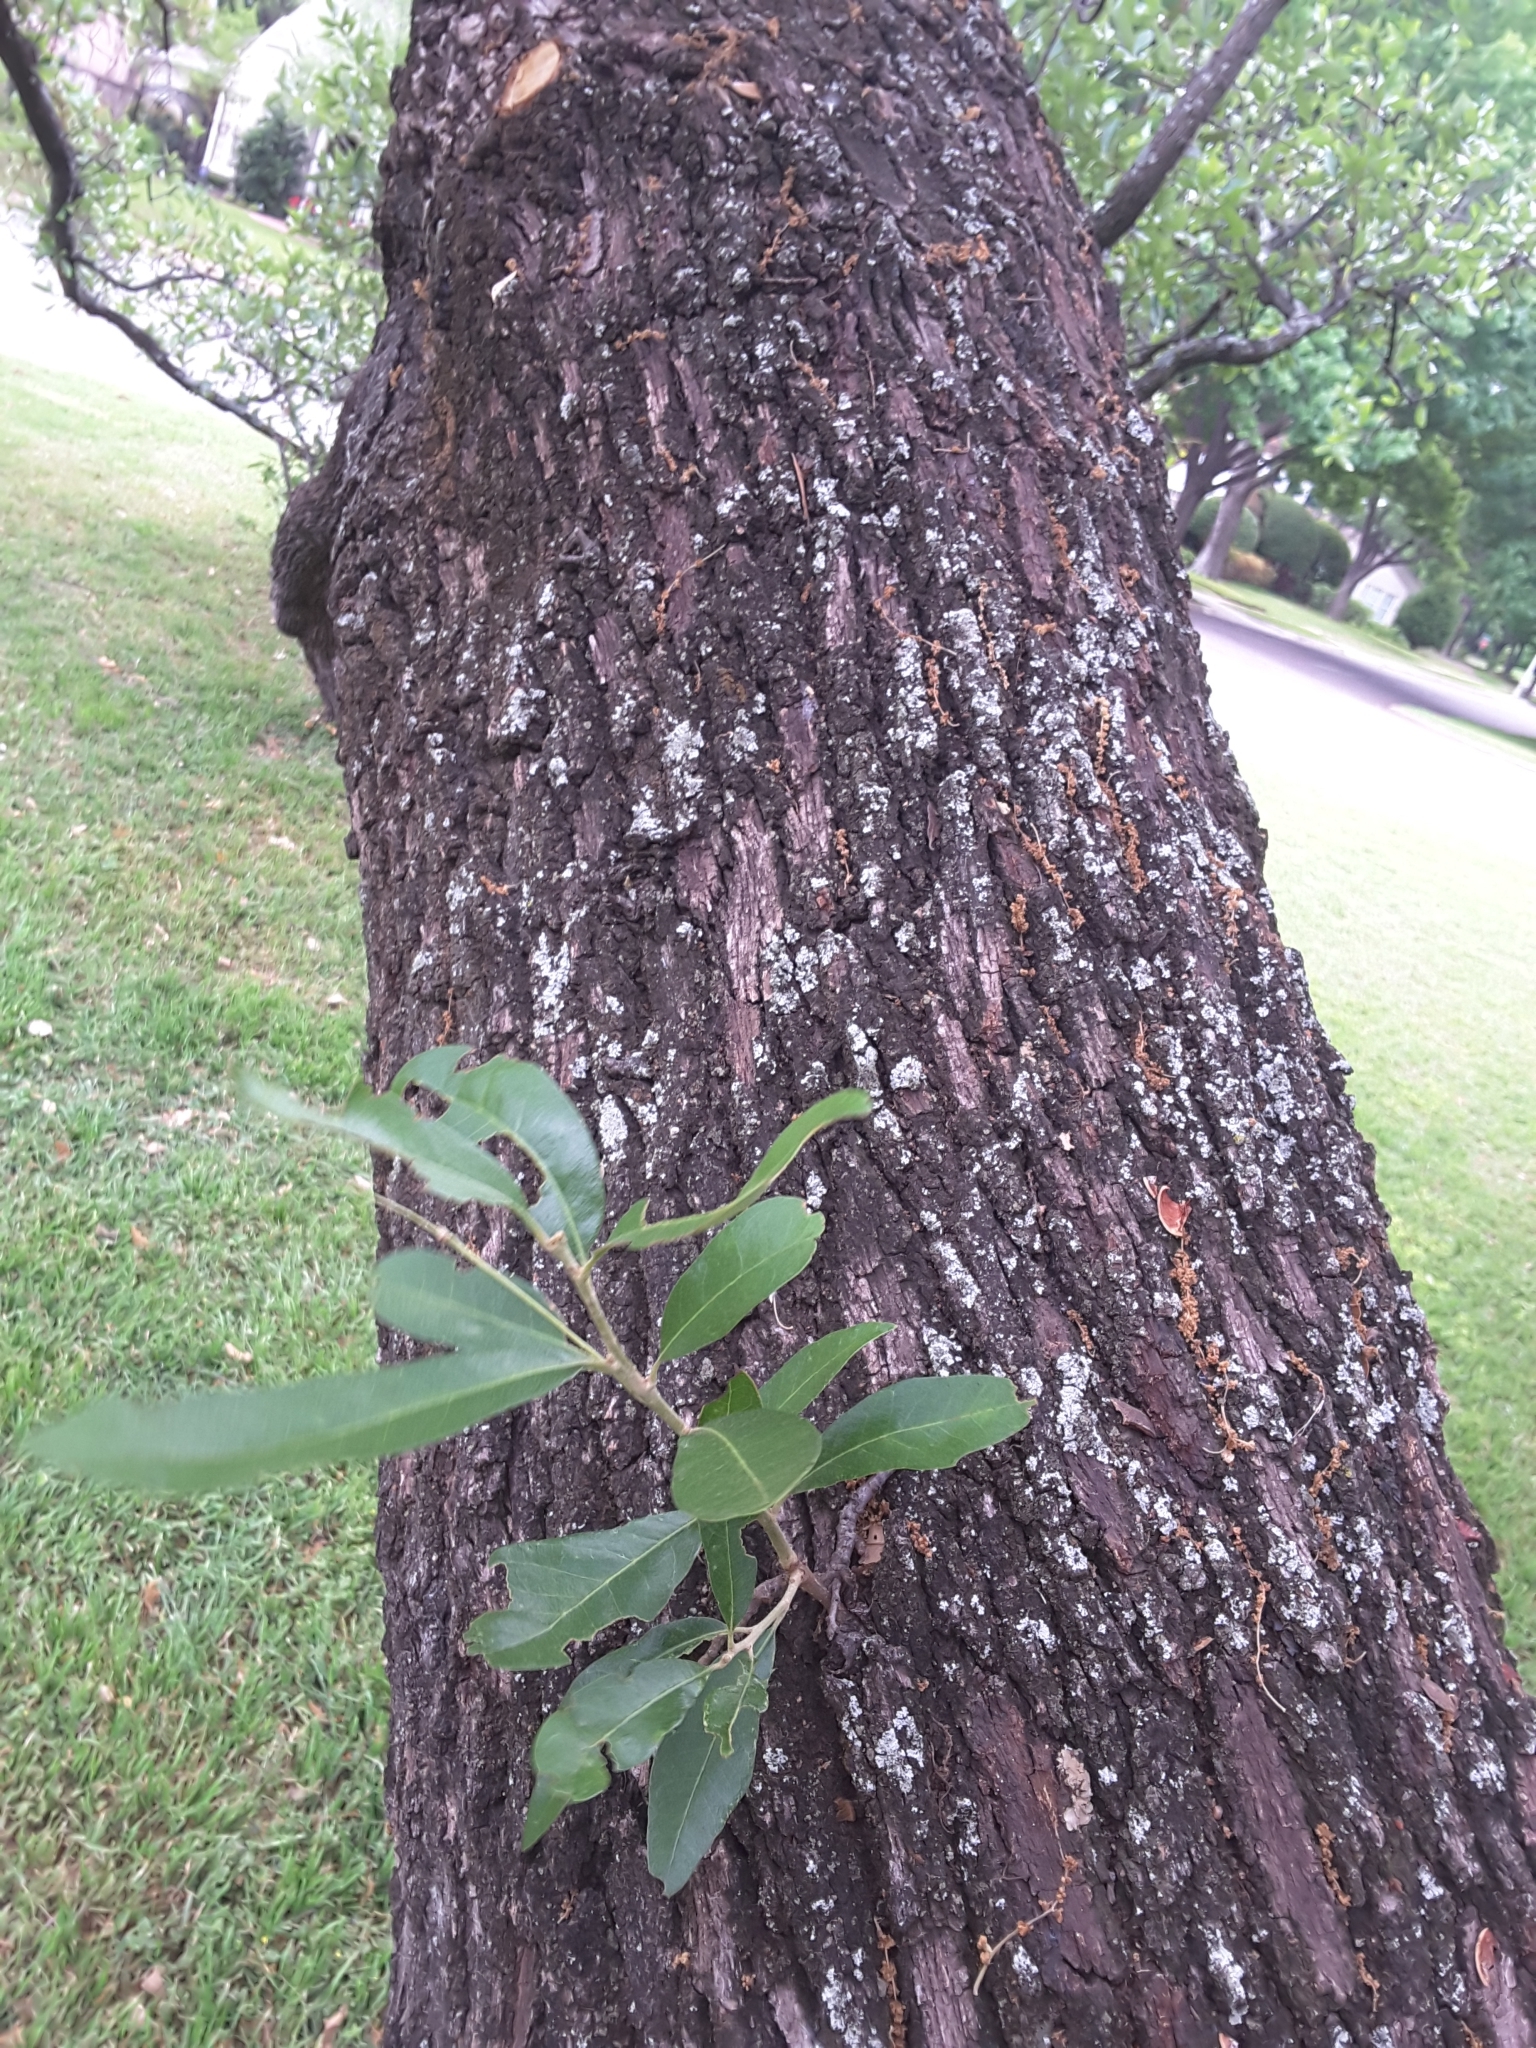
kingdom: Plantae
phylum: Tracheophyta
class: Magnoliopsida
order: Fagales
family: Fagaceae
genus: Quercus
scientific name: Quercus fusiformis
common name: Texas live oak
